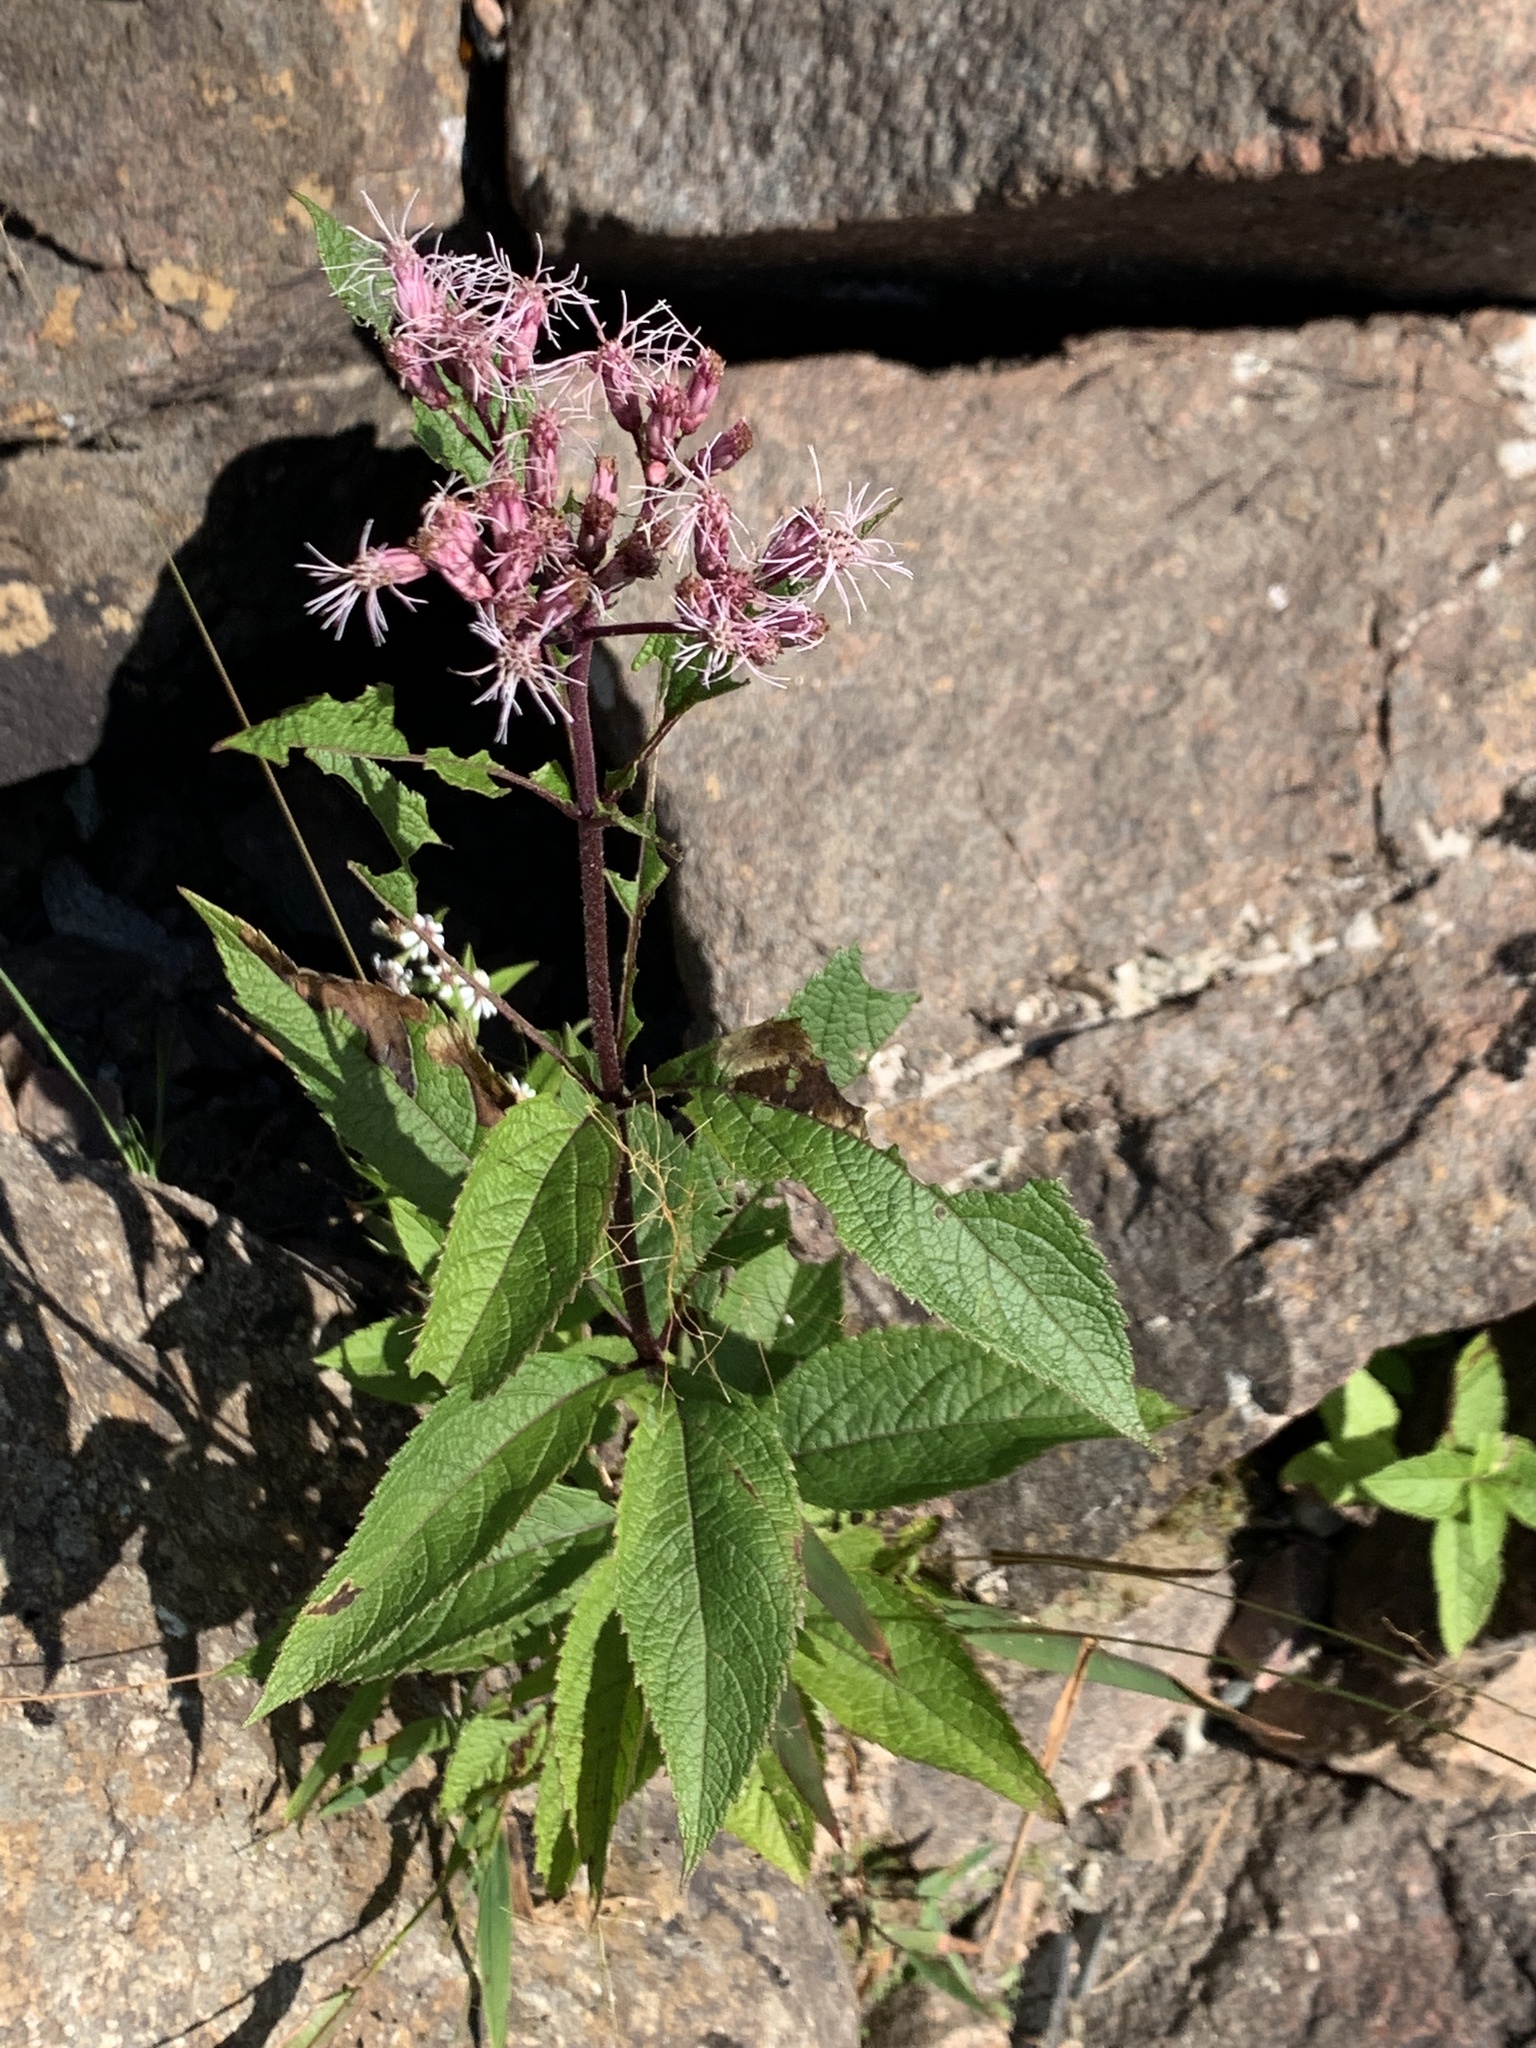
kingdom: Plantae
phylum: Tracheophyta
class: Magnoliopsida
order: Asterales
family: Asteraceae
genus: Eutrochium
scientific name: Eutrochium maculatum
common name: Spotted joe pye weed
